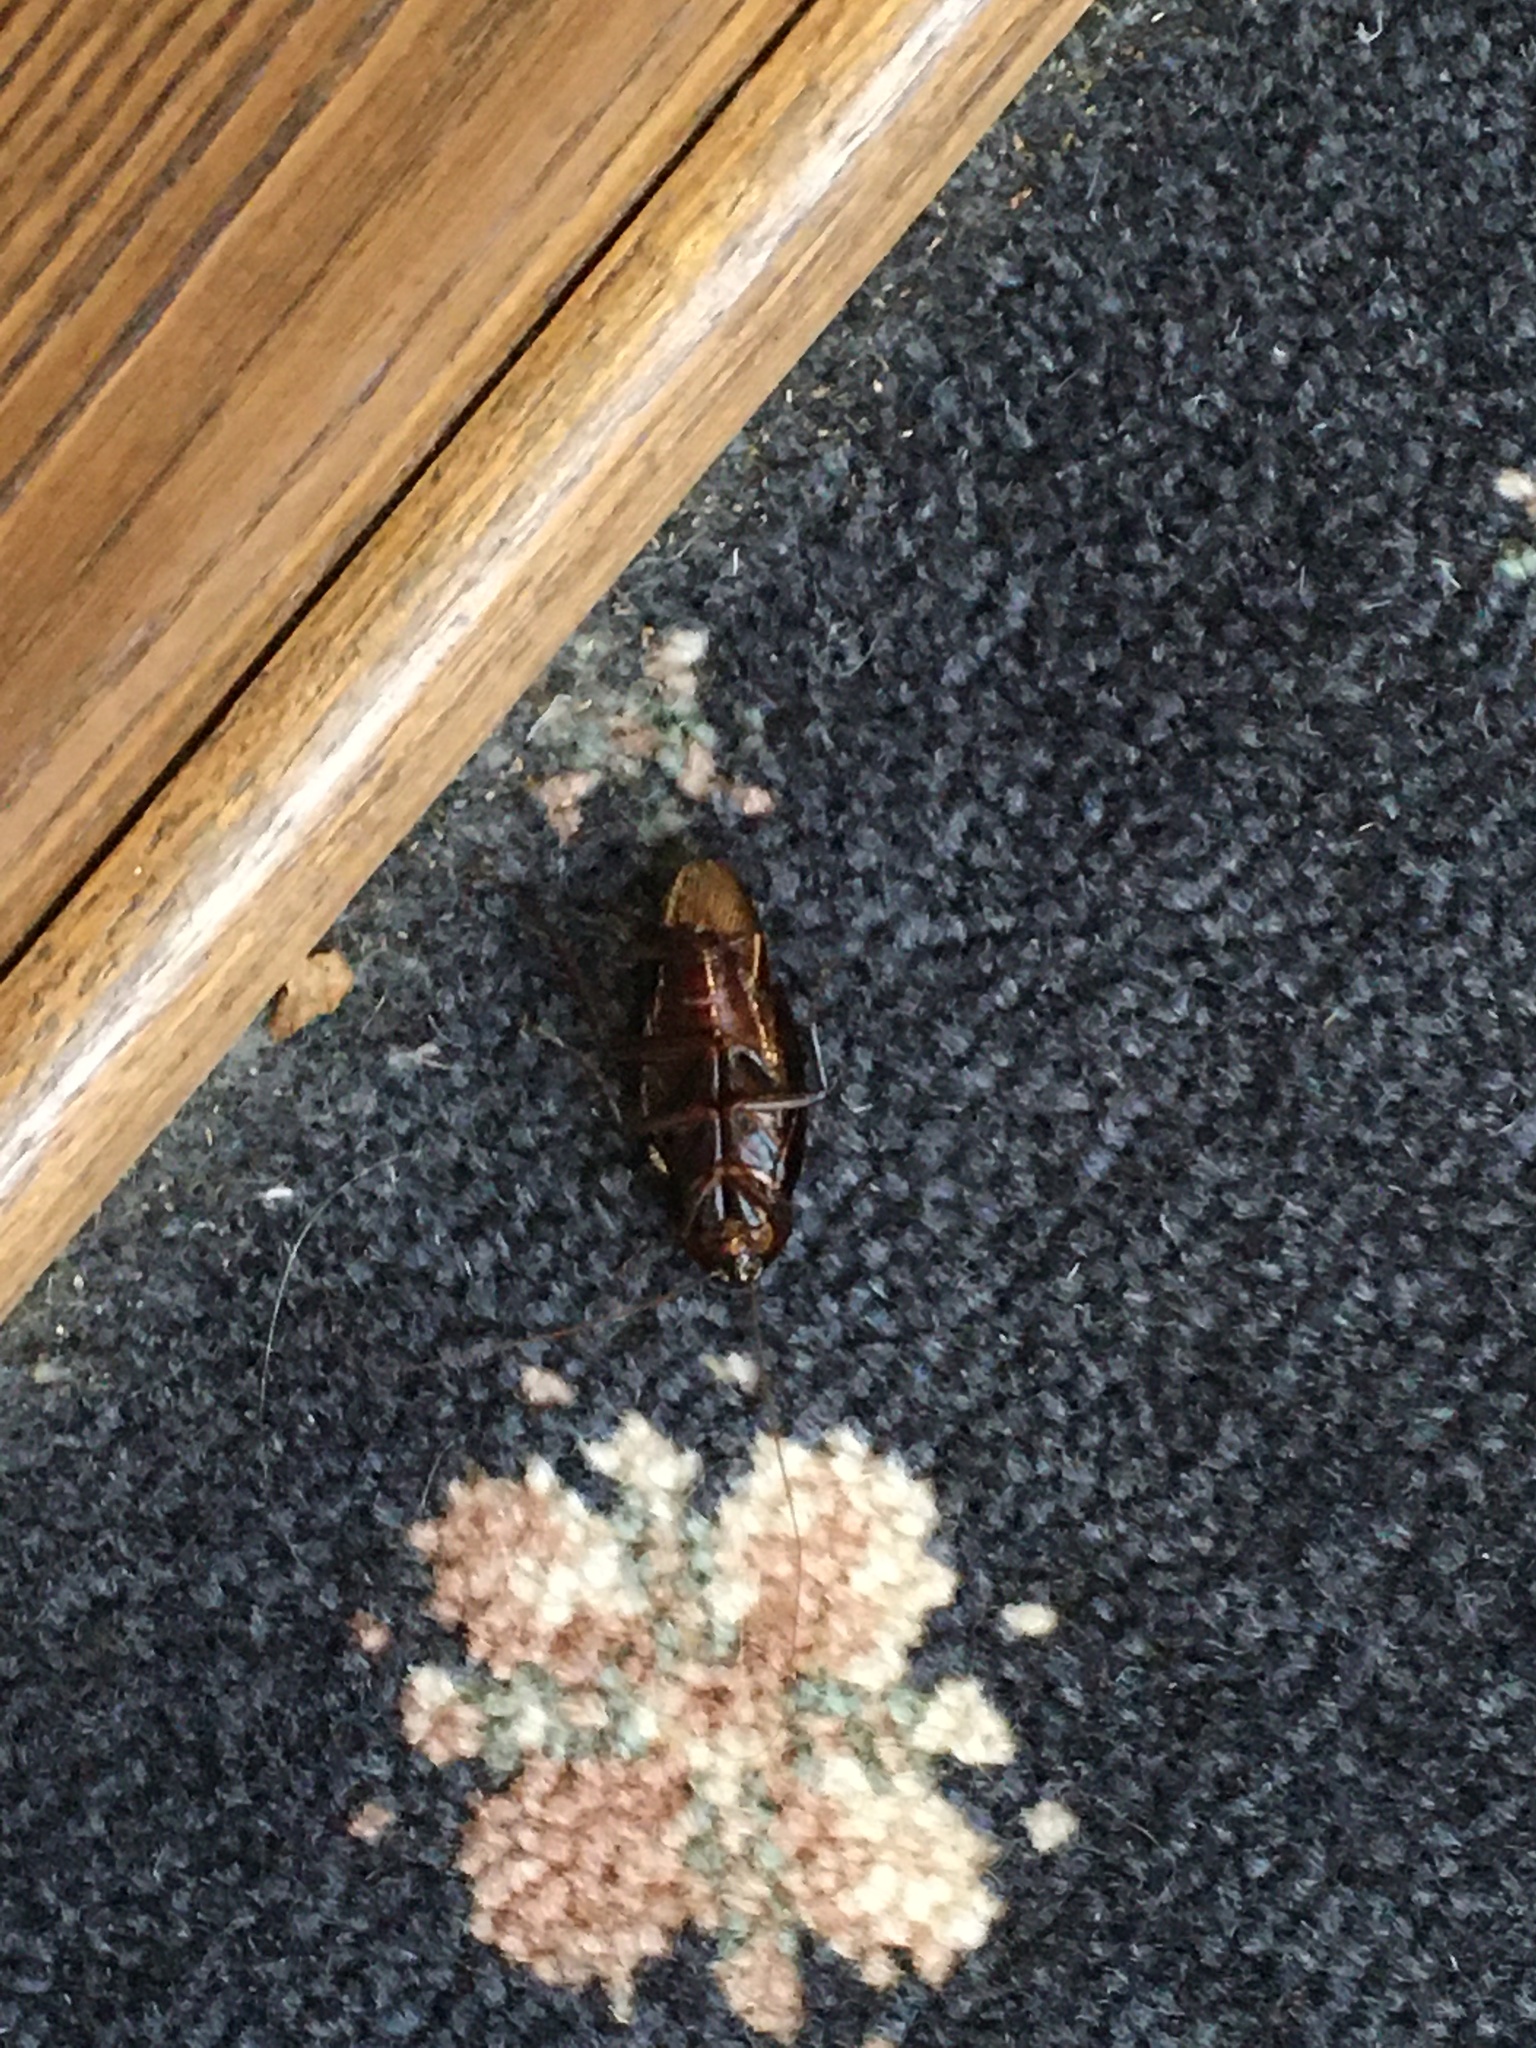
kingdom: Animalia
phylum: Arthropoda
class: Insecta
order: Blattodea
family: Blattidae
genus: Periplaneta
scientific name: Periplaneta fuliginosa
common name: Smokeybrown cockroad
